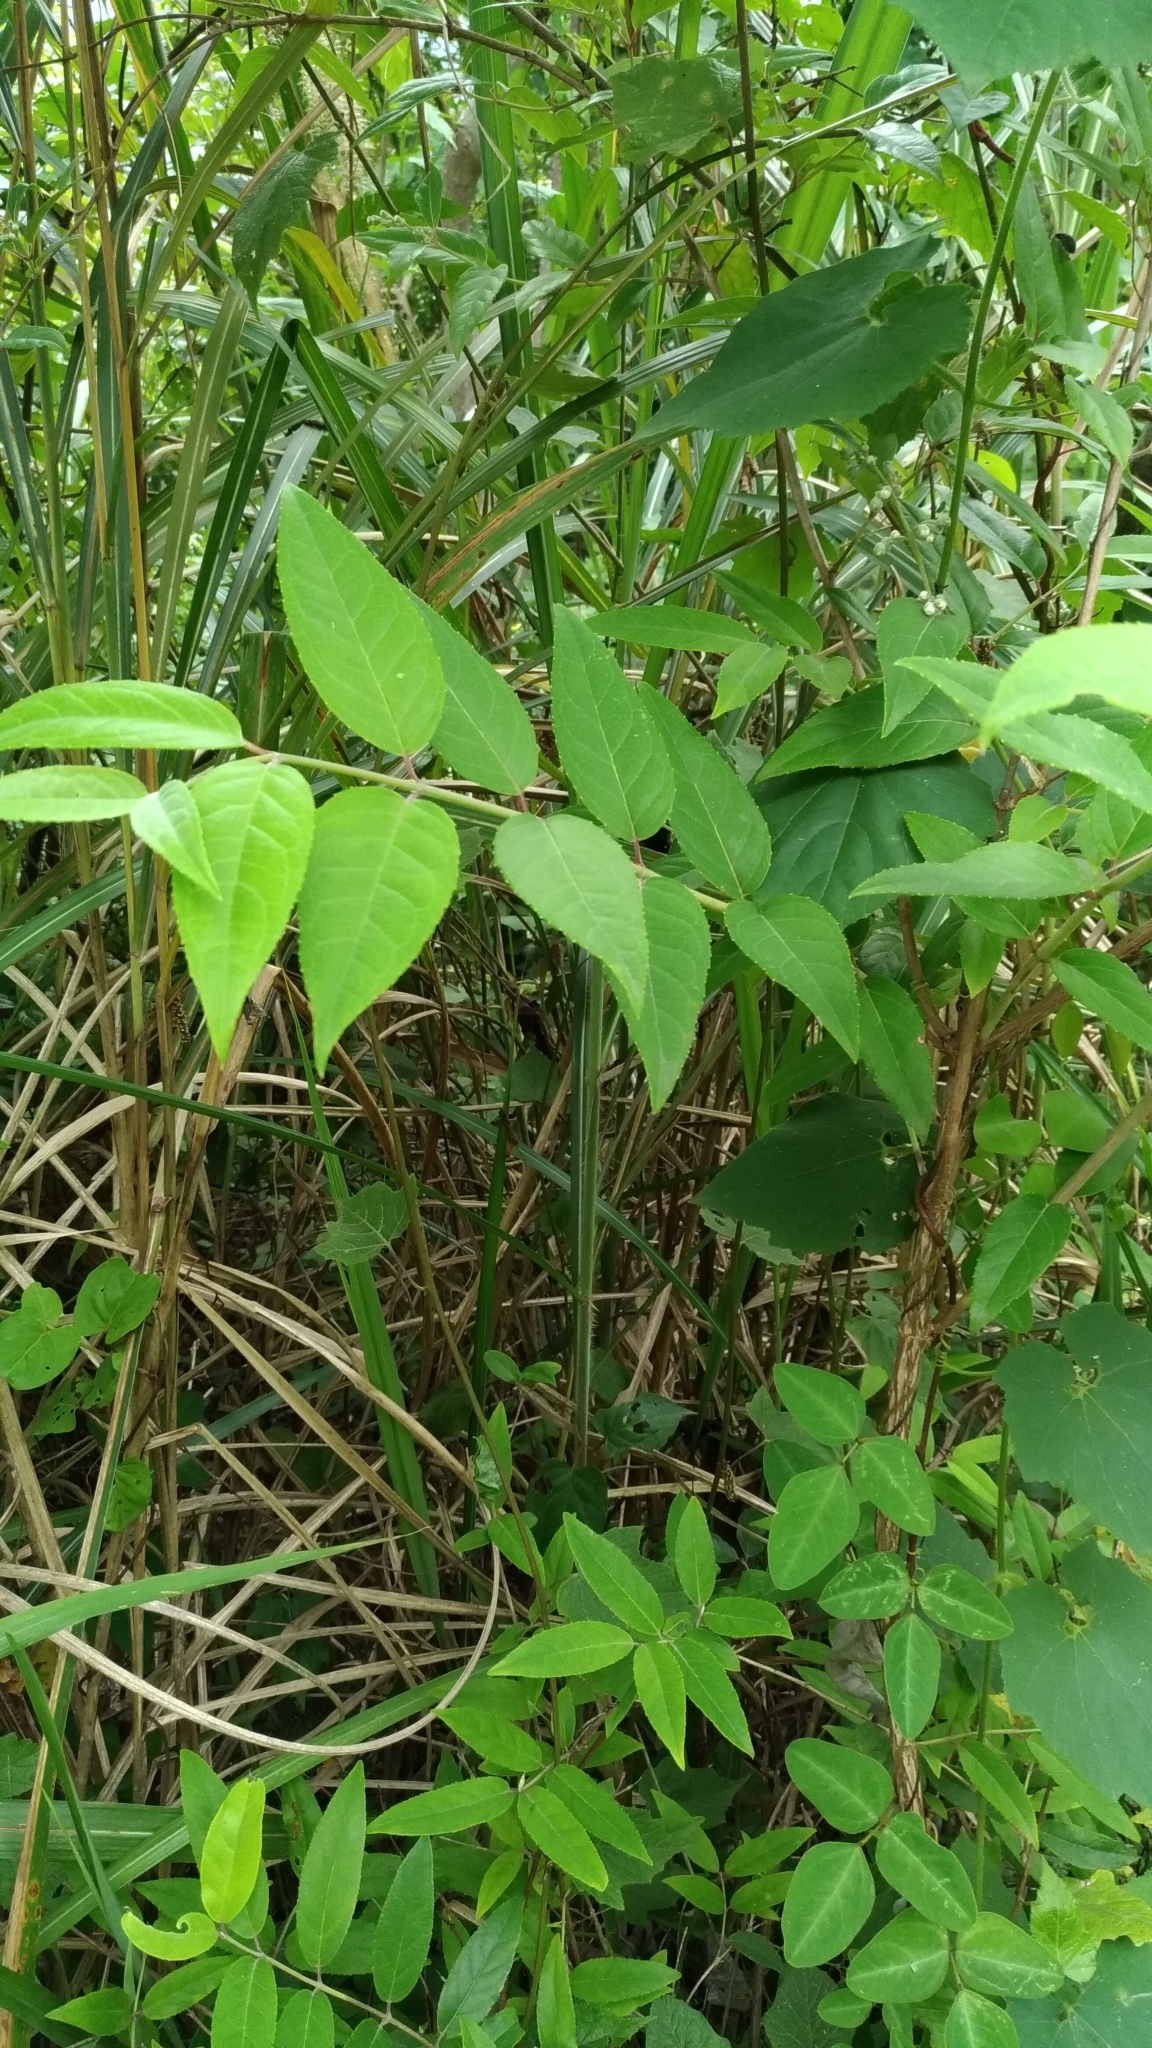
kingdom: Plantae
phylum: Tracheophyta
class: Magnoliopsida
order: Cornales
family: Hydrangeaceae
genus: Deutzia
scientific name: Deutzia pulchra
